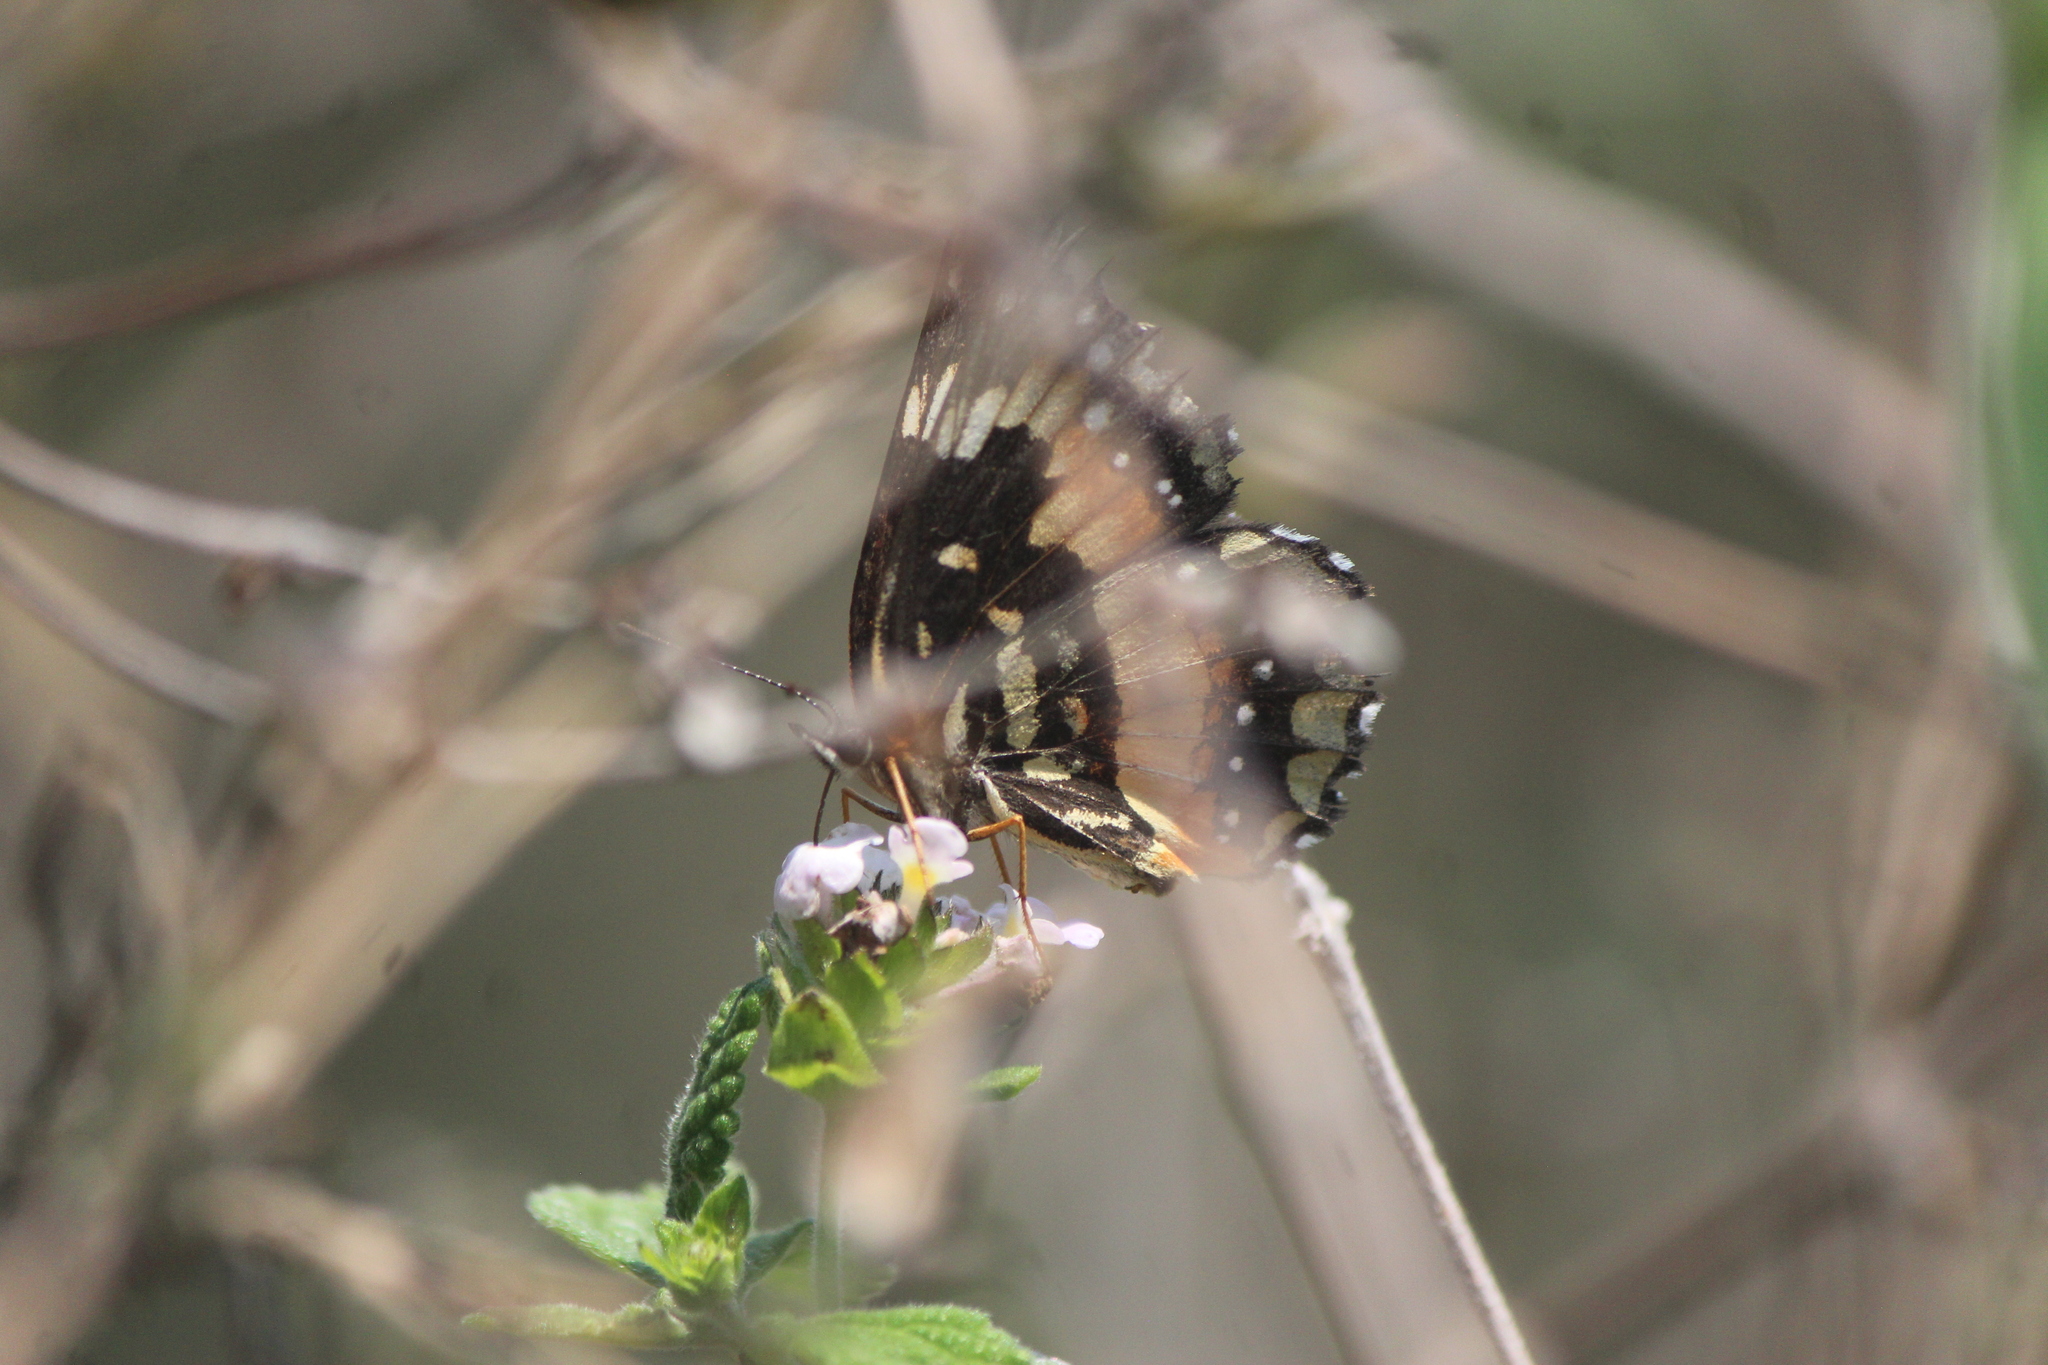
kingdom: Animalia
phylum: Arthropoda
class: Insecta
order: Lepidoptera
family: Nymphalidae
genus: Chlosyne
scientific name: Chlosyne lacinia
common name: Bordered patch
